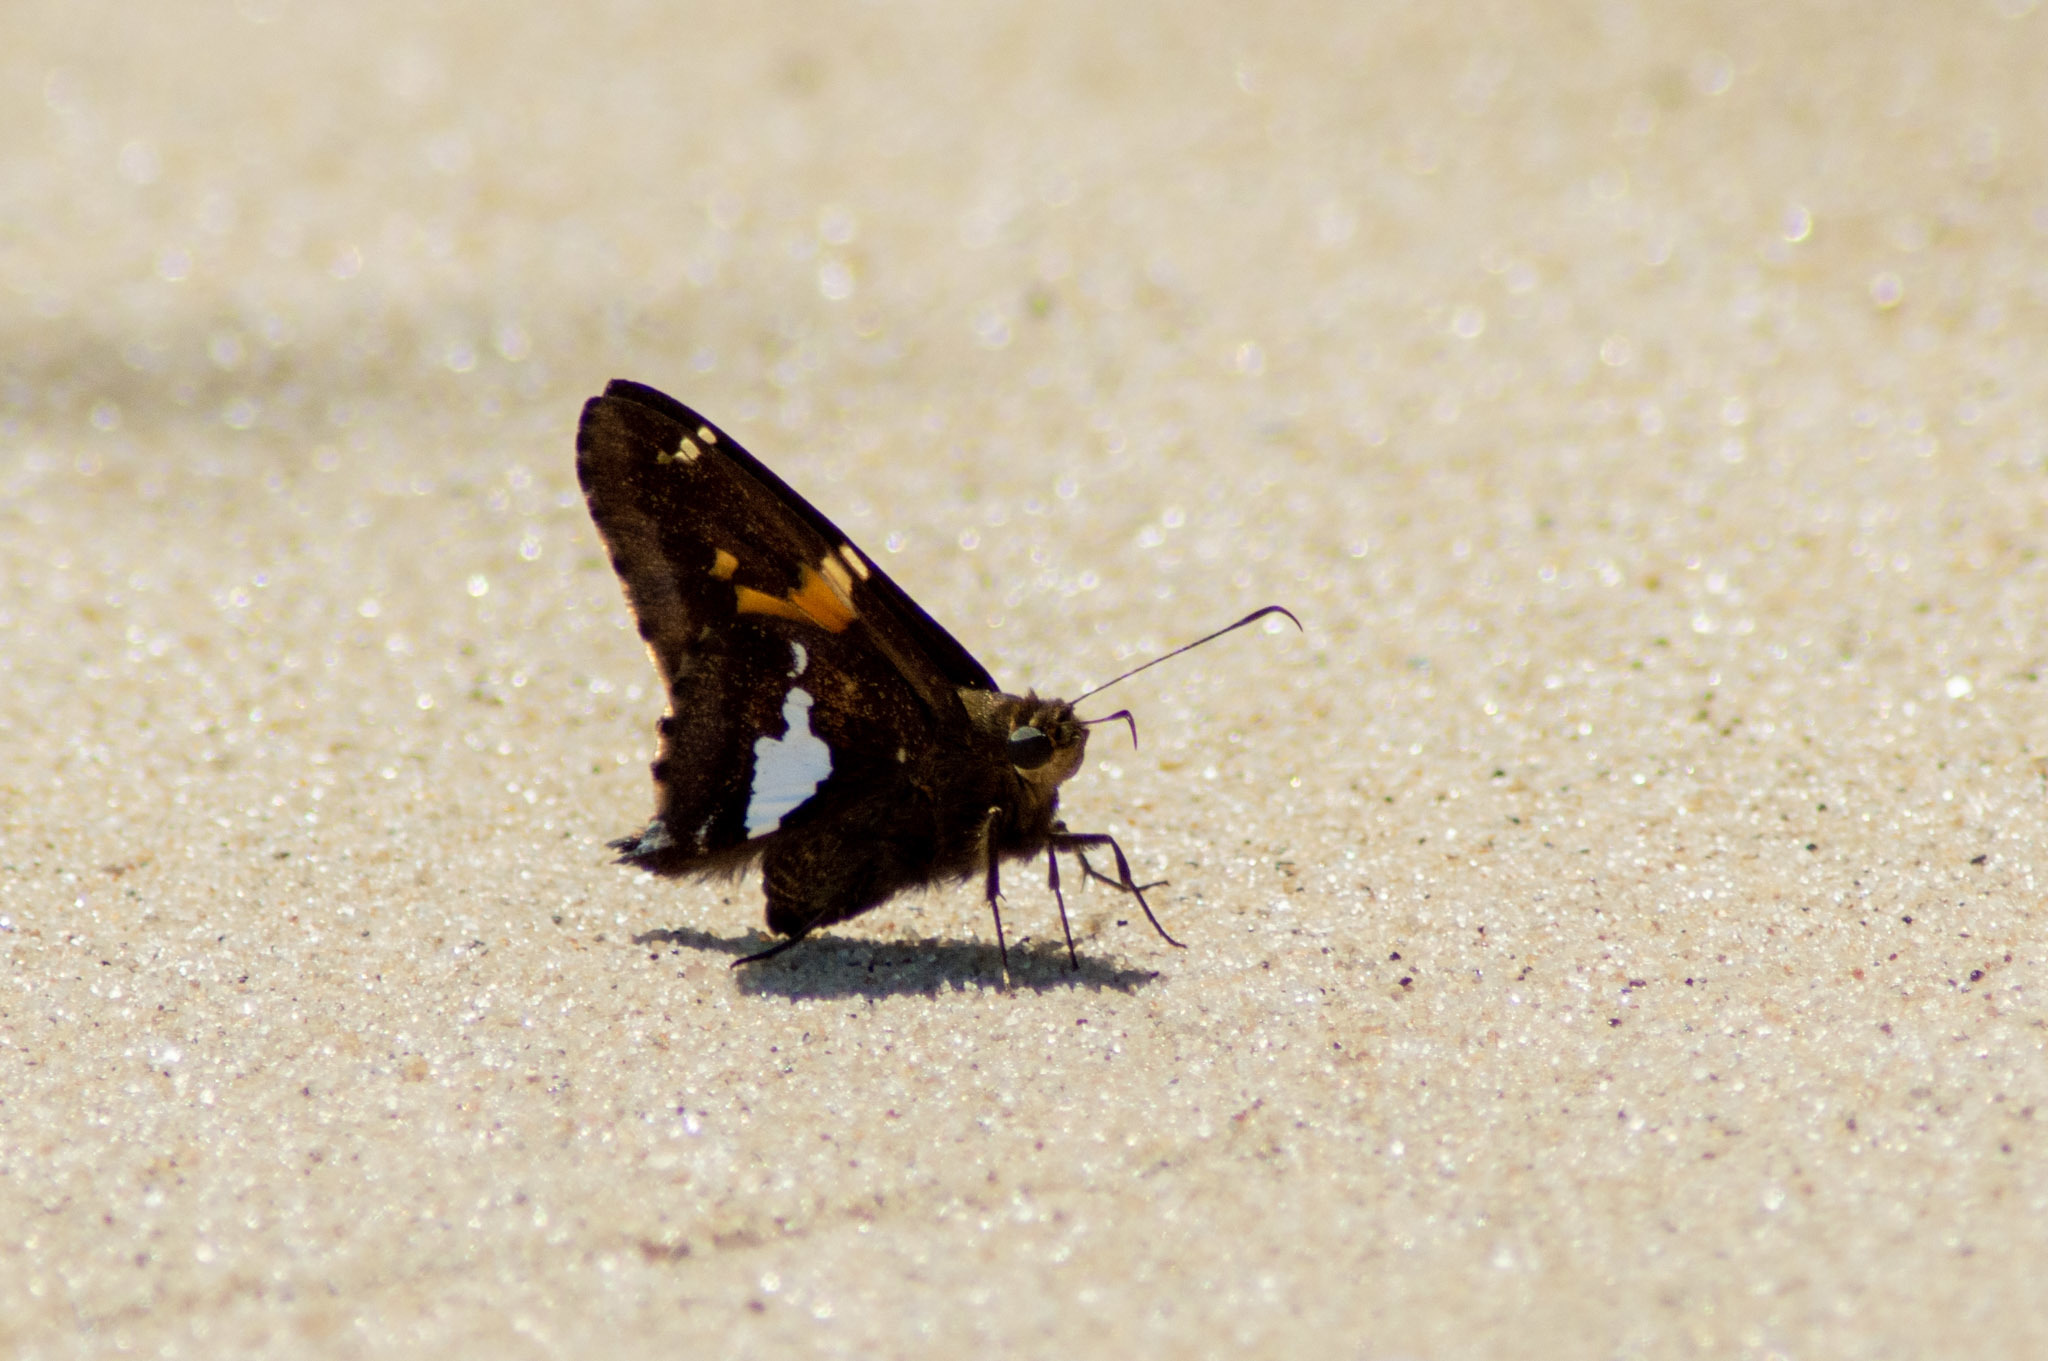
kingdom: Animalia
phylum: Arthropoda
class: Insecta
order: Lepidoptera
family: Hesperiidae
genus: Epargyreus
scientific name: Epargyreus clarus
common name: Silver-spotted skipper
